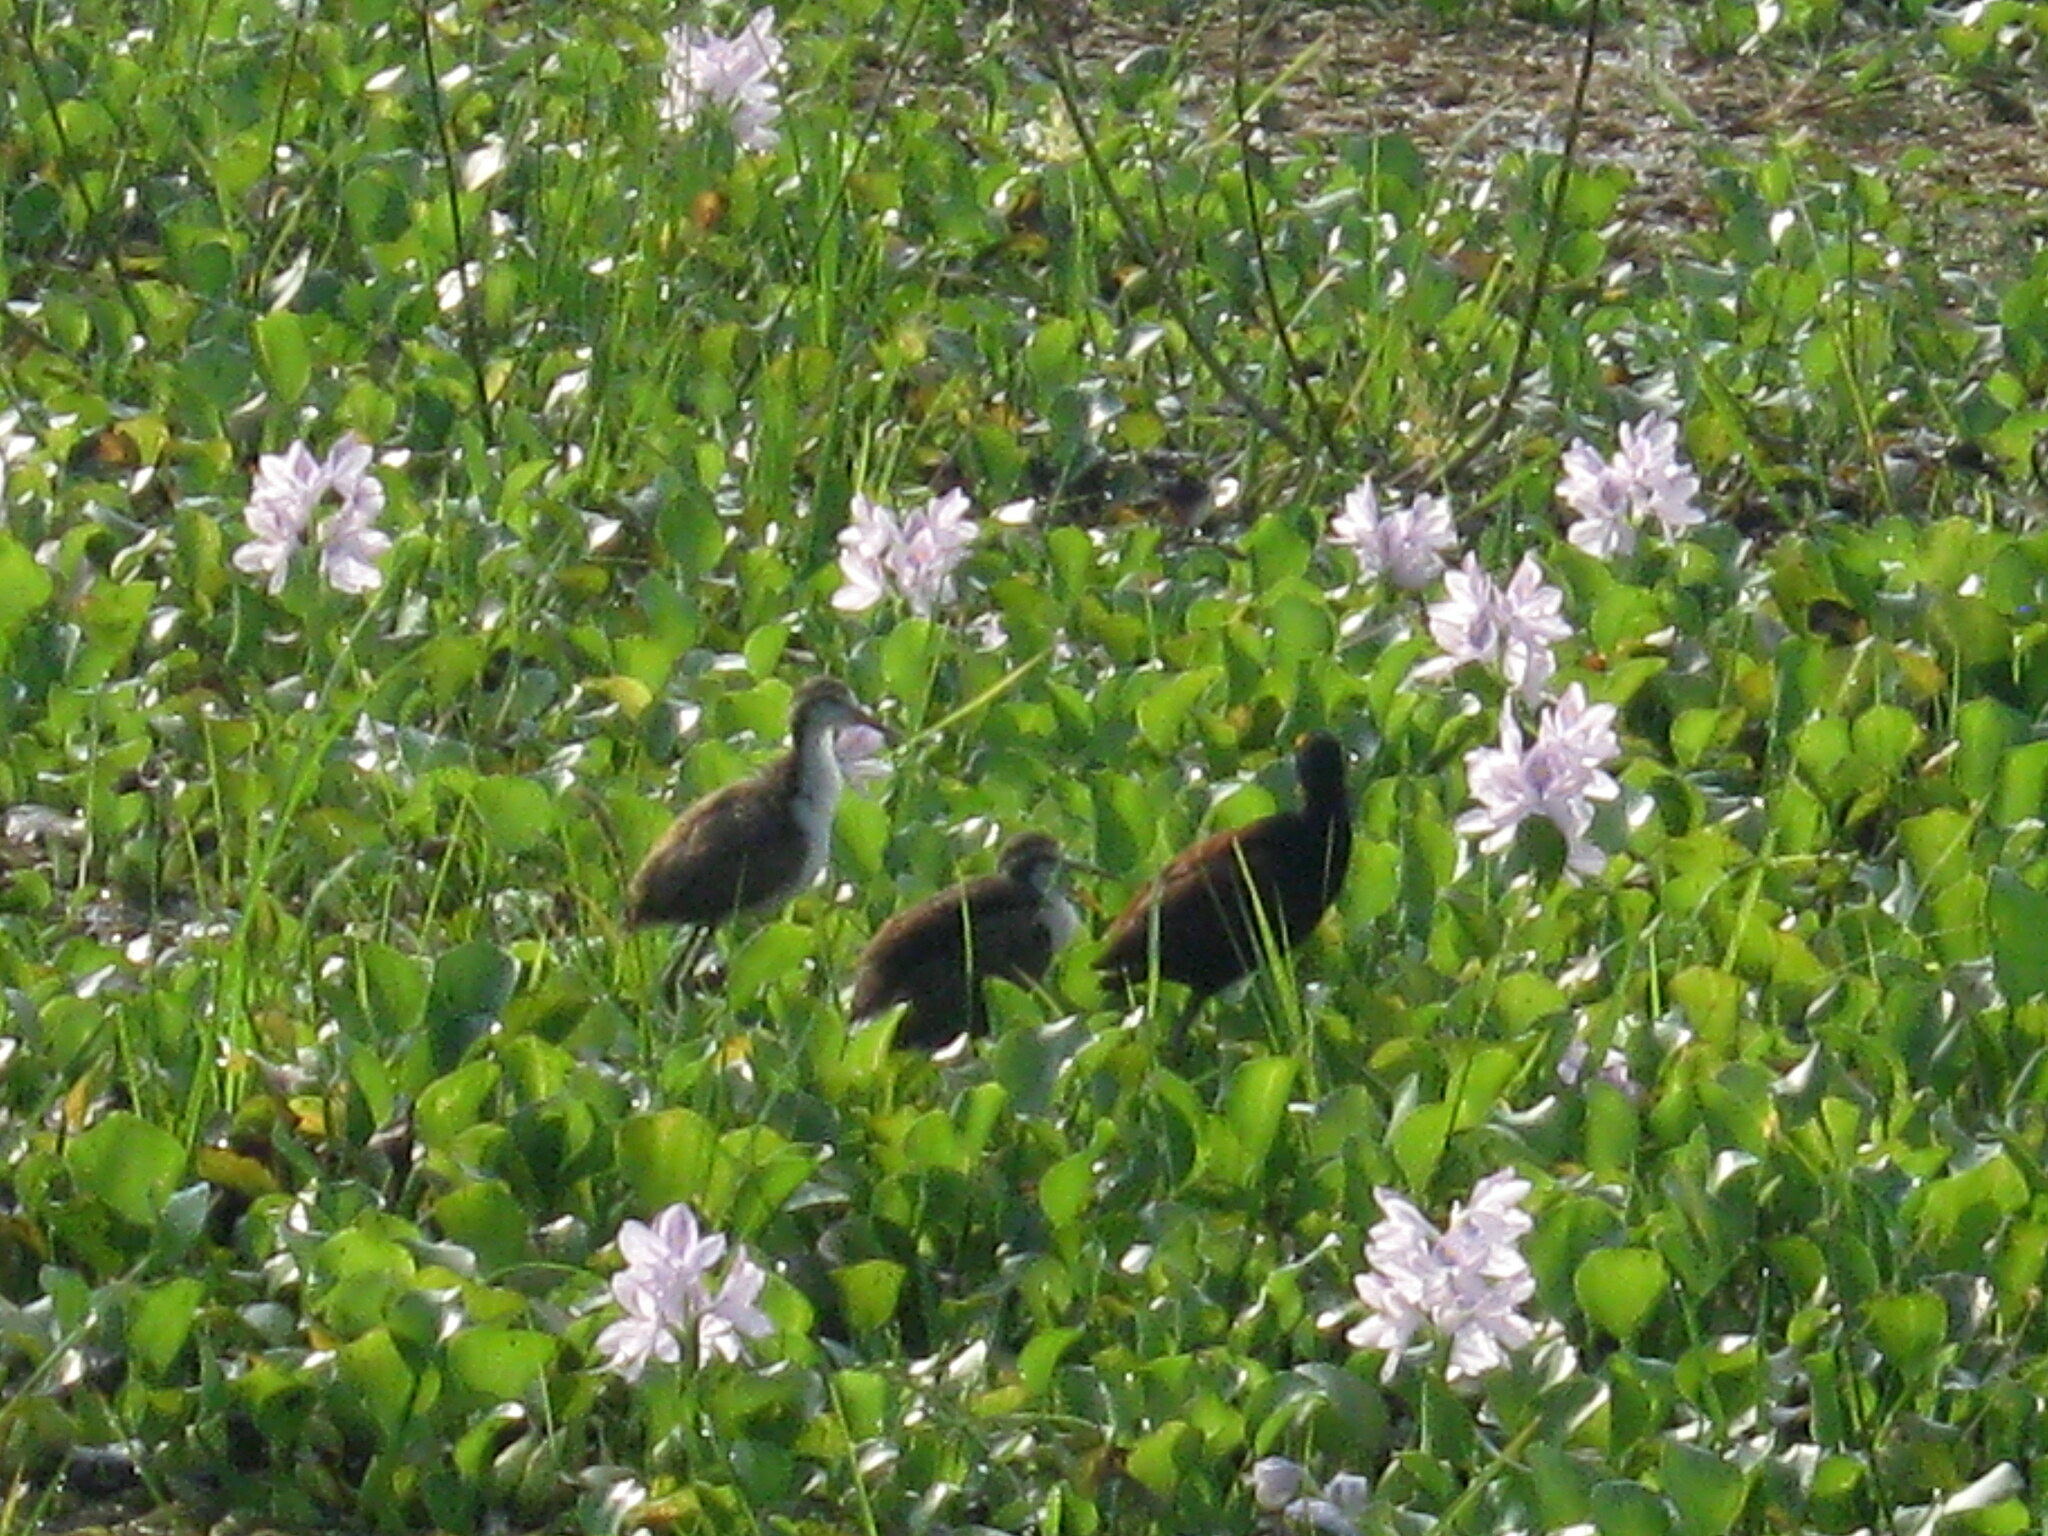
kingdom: Animalia
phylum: Chordata
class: Aves
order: Charadriiformes
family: Jacanidae
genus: Jacana
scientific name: Jacana spinosa
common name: Northern jacana
